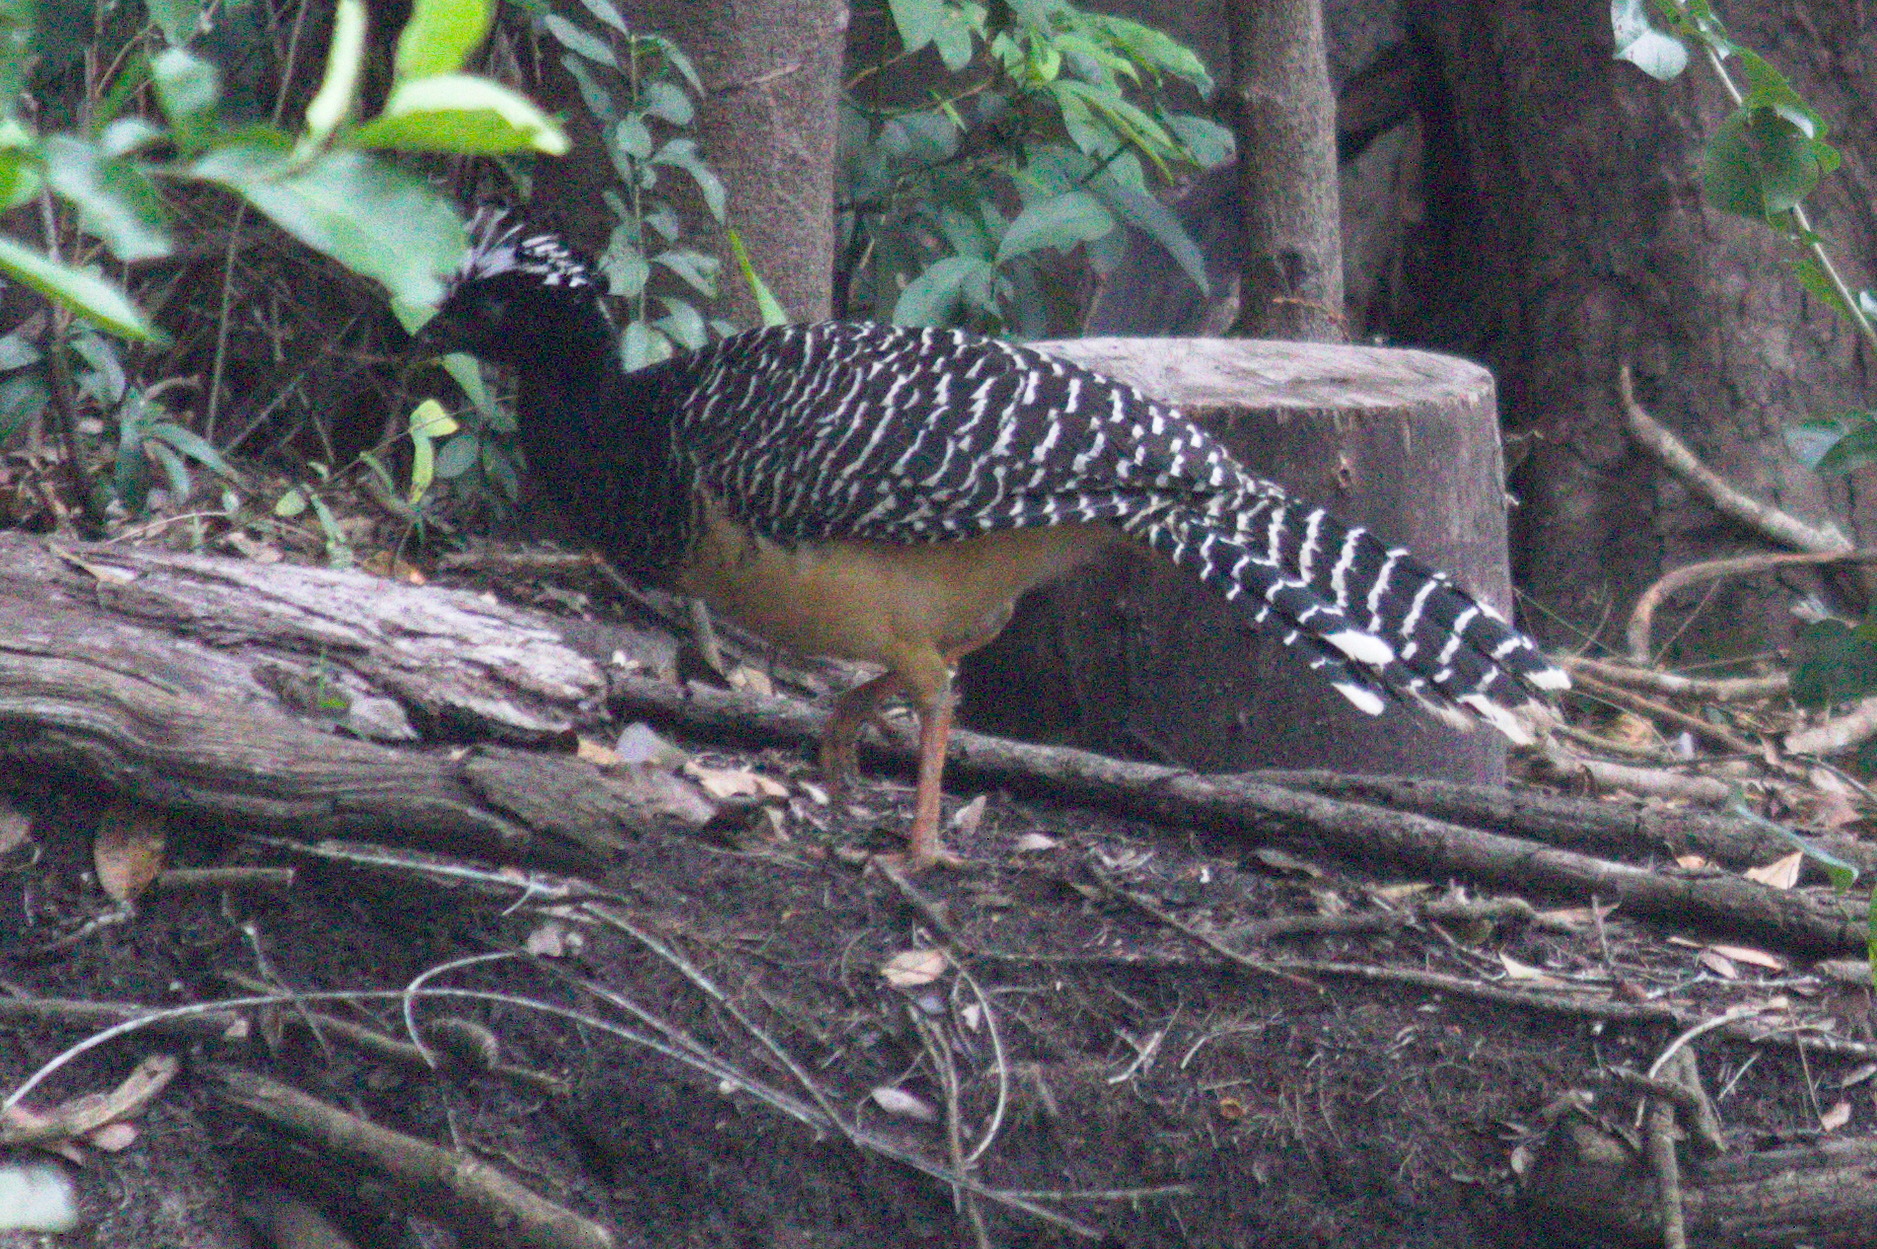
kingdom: Animalia
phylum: Chordata
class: Aves
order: Galliformes
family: Cracidae
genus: Crax
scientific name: Crax fasciolata
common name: Bare-faced curassow
